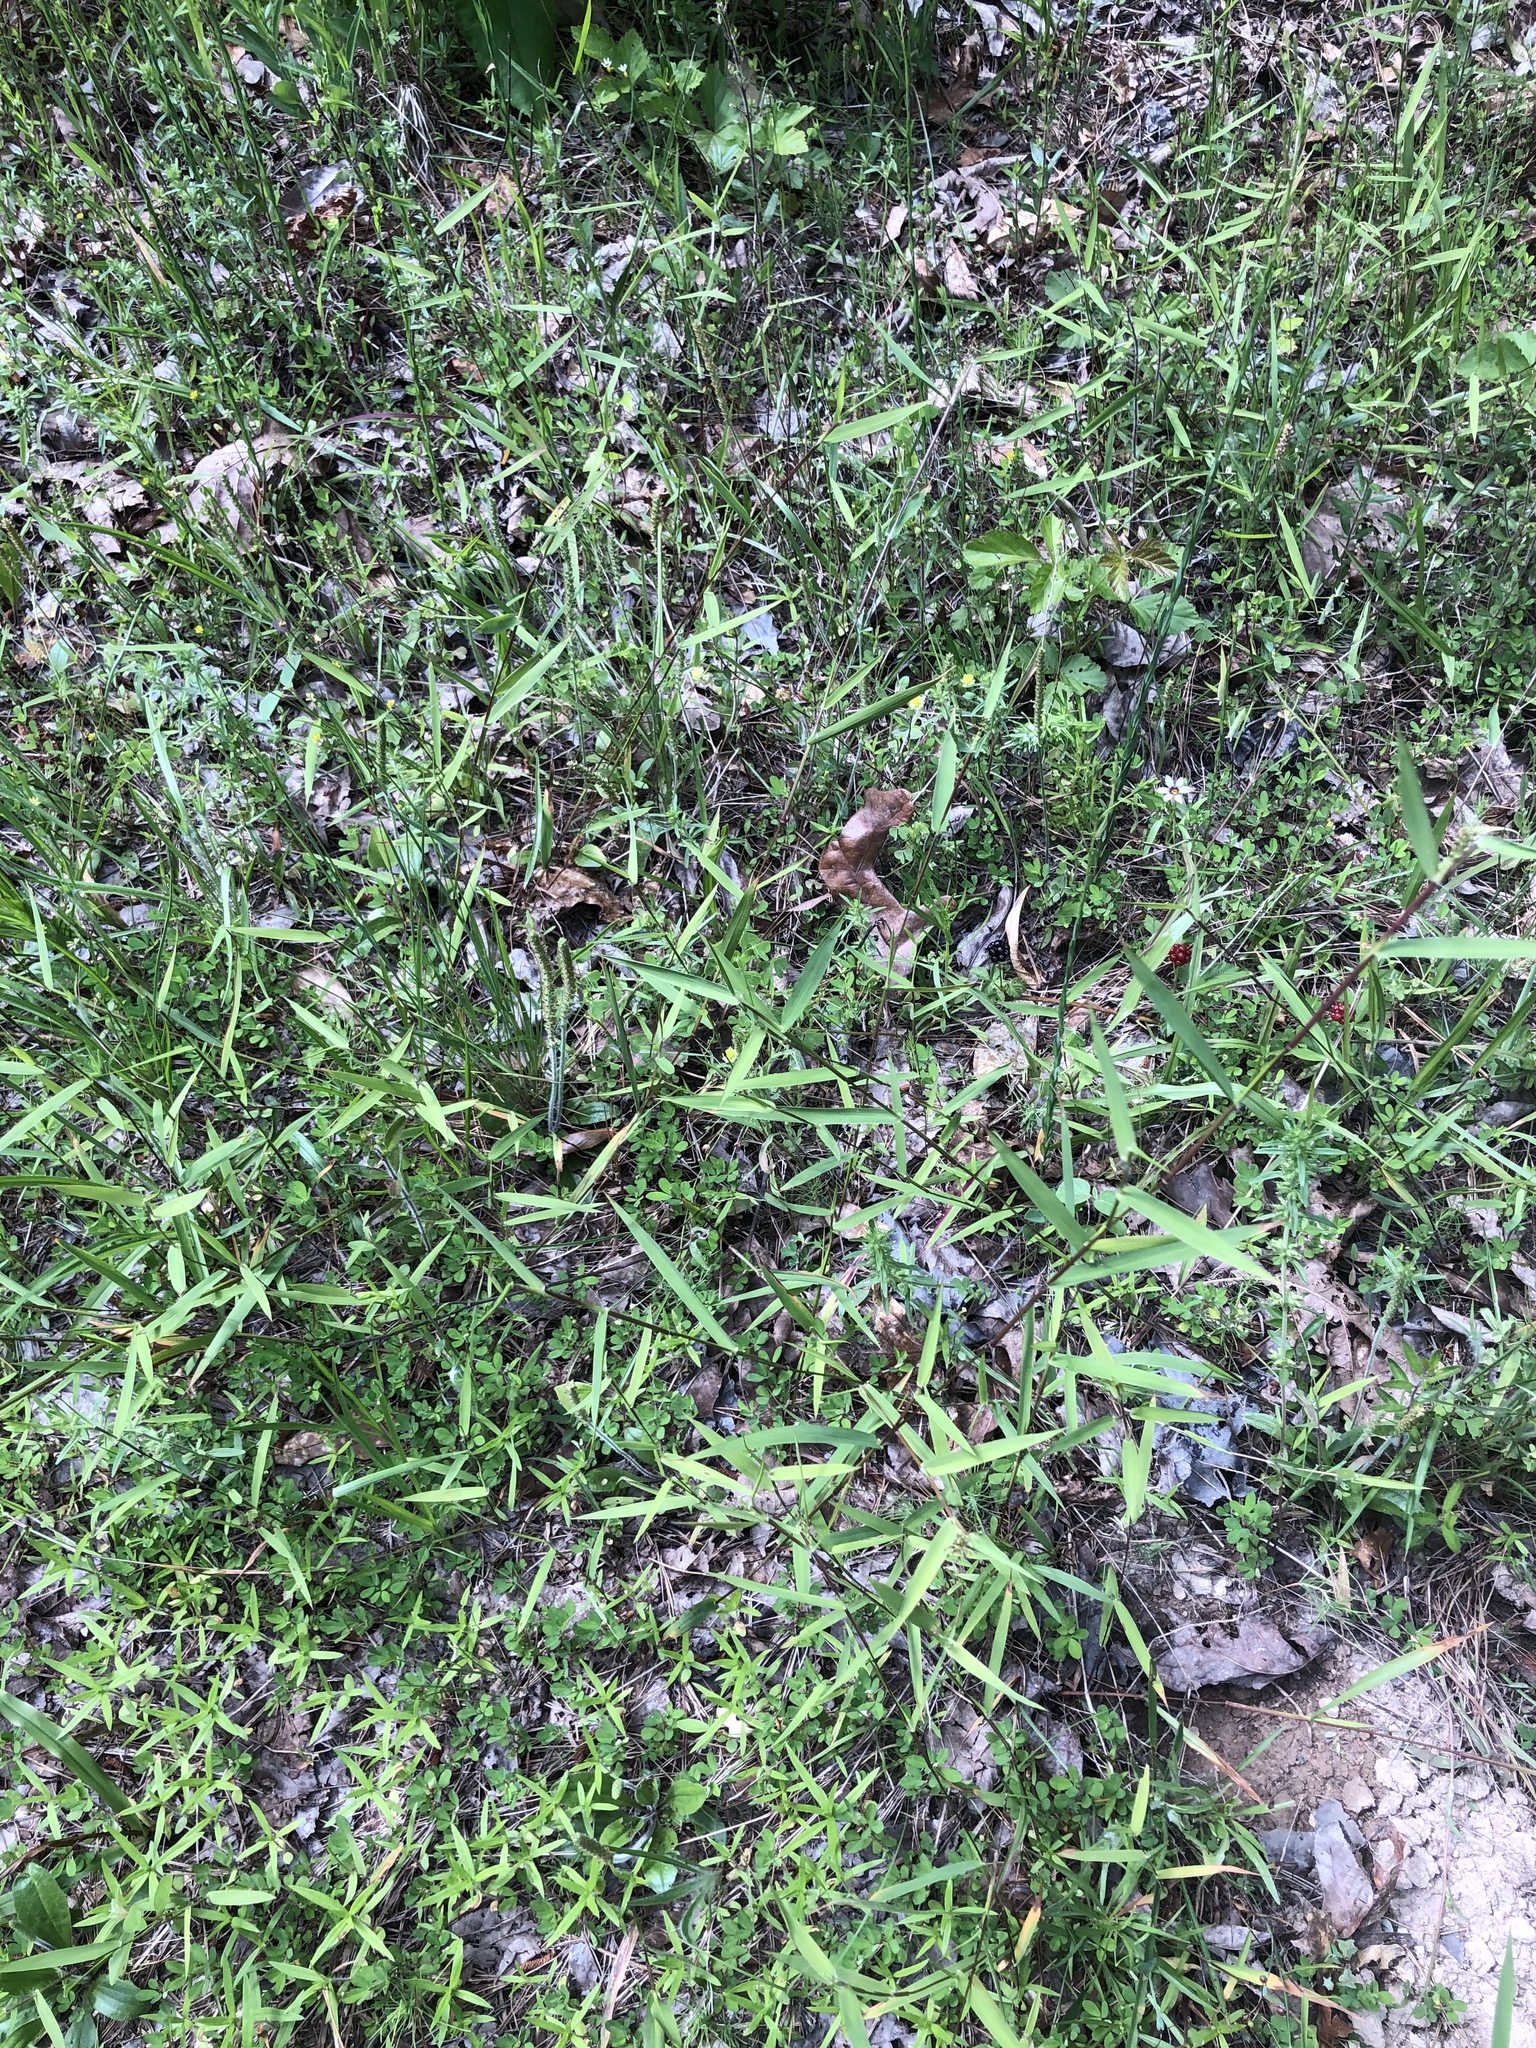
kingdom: Plantae
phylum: Tracheophyta
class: Liliopsida
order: Poales
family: Poaceae
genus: Dichanthelium
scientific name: Dichanthelium lindheimeri
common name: Lindheimer's panicgrass
